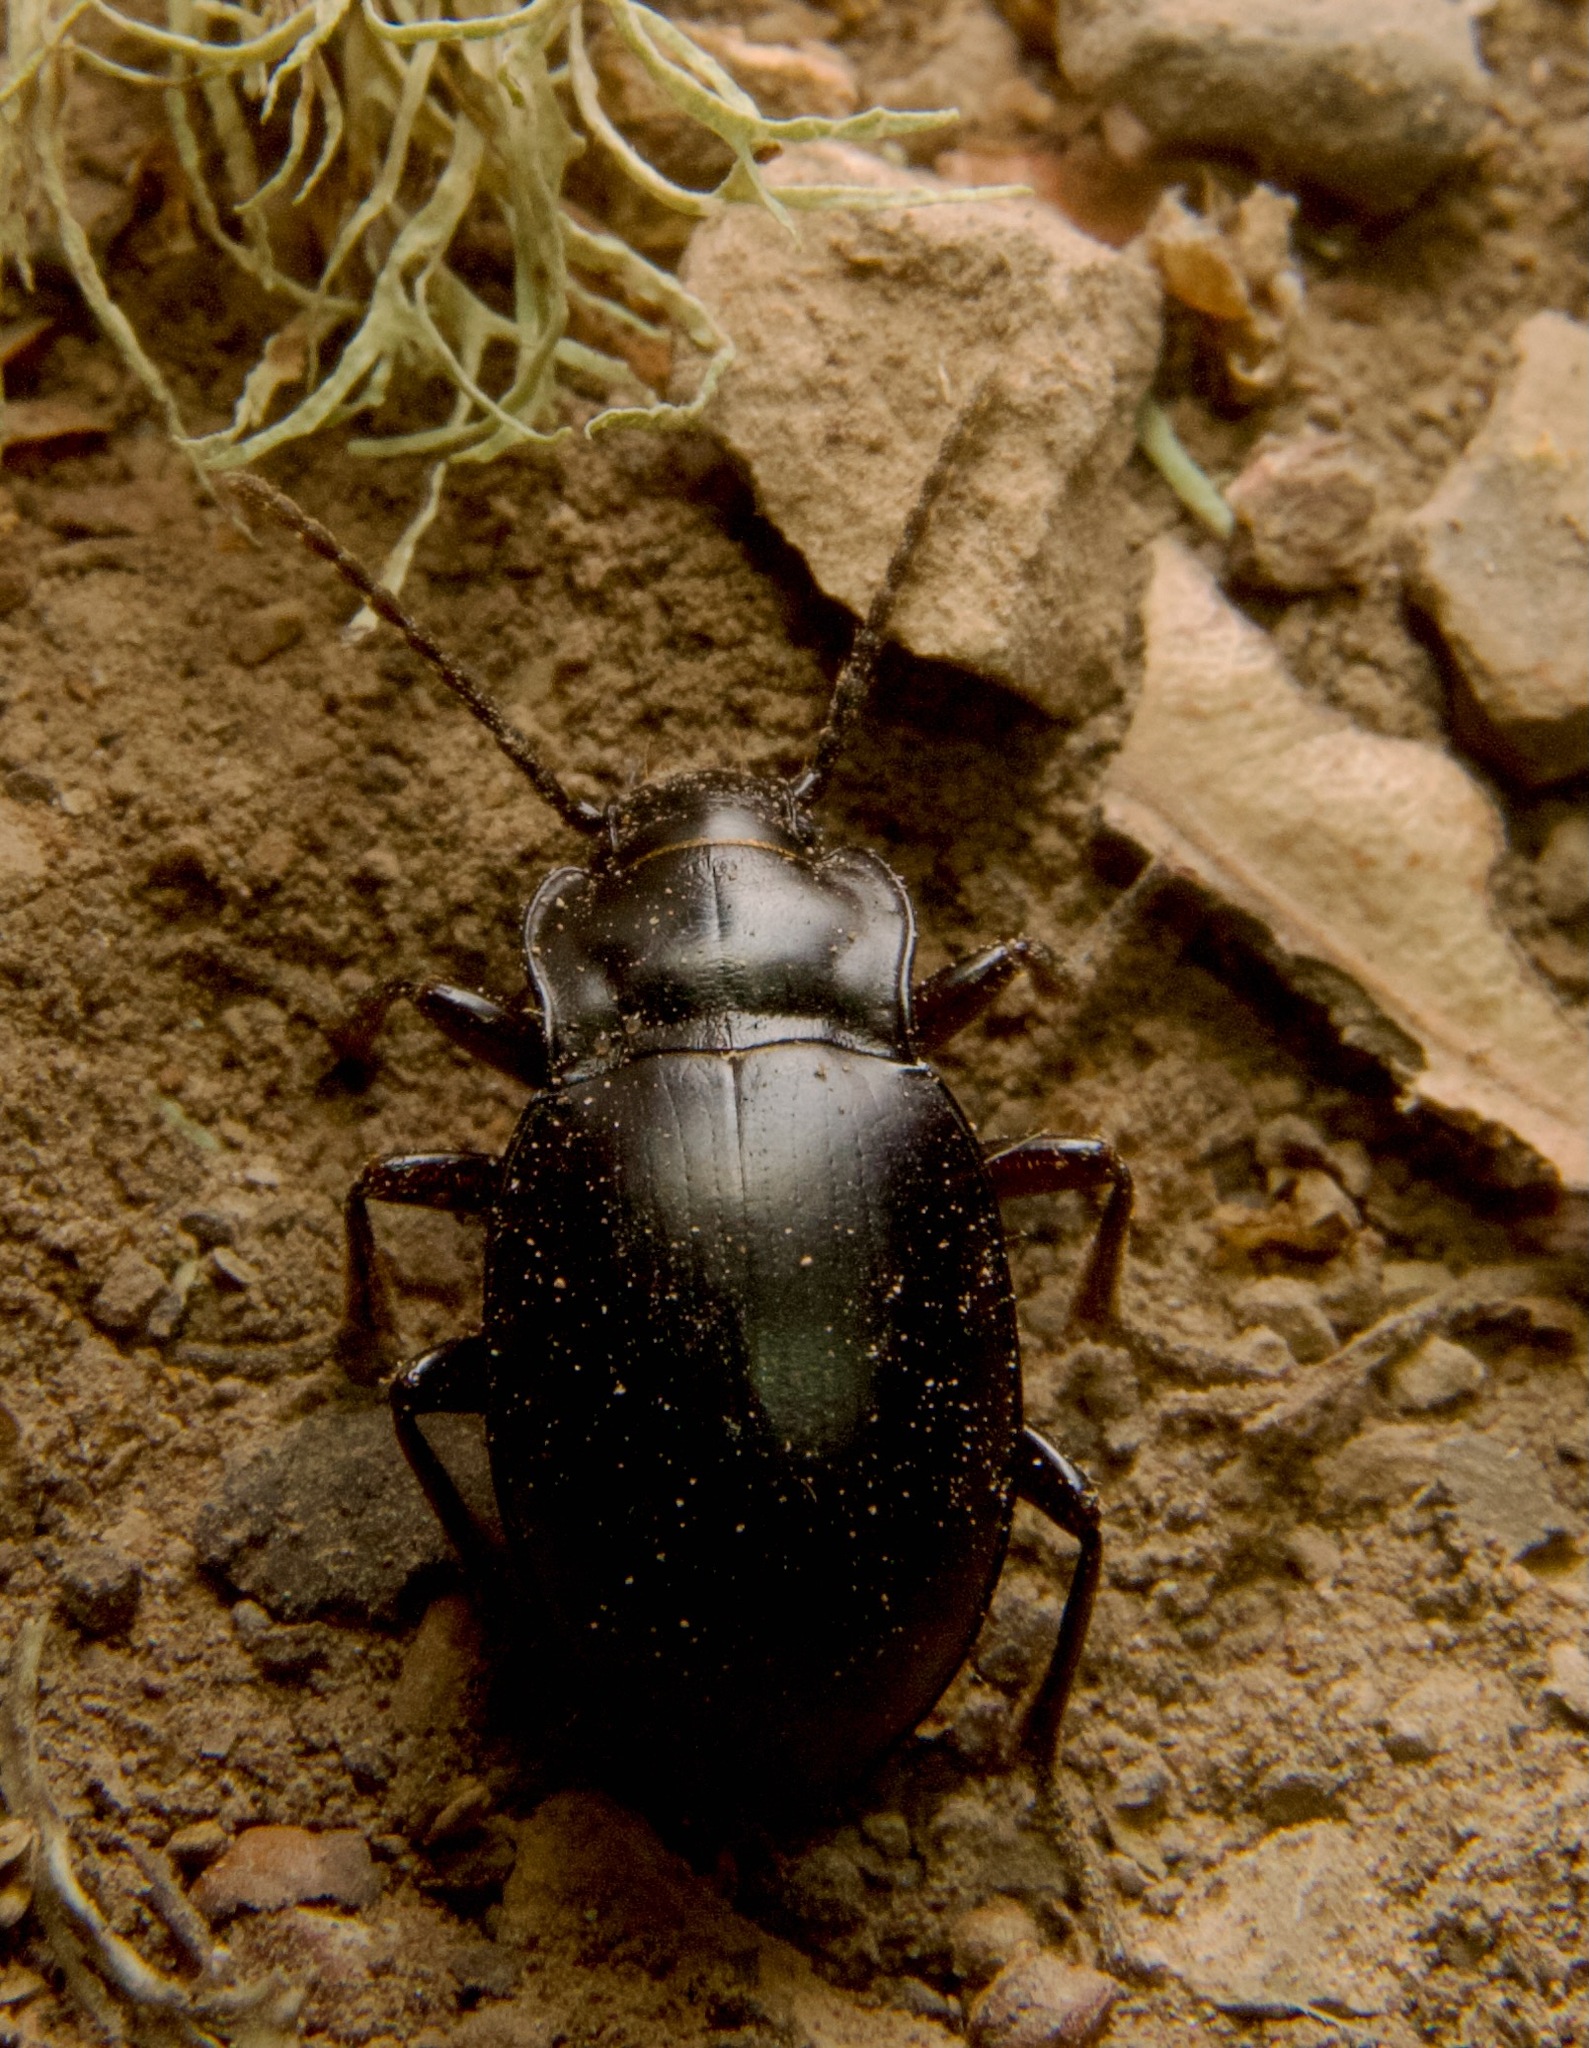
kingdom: Animalia
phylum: Arthropoda
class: Insecta
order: Coleoptera
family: Carabidae
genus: Metrius
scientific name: Metrius contractus
